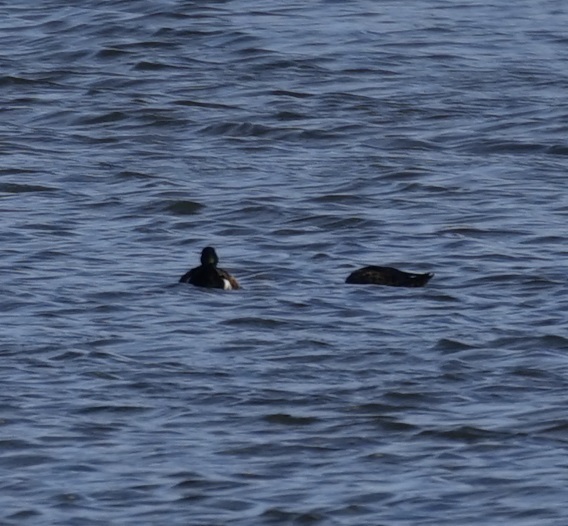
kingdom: Animalia
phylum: Chordata
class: Aves
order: Anseriformes
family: Anatidae
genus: Anas
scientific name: Anas castanea
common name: Chestnut teal
